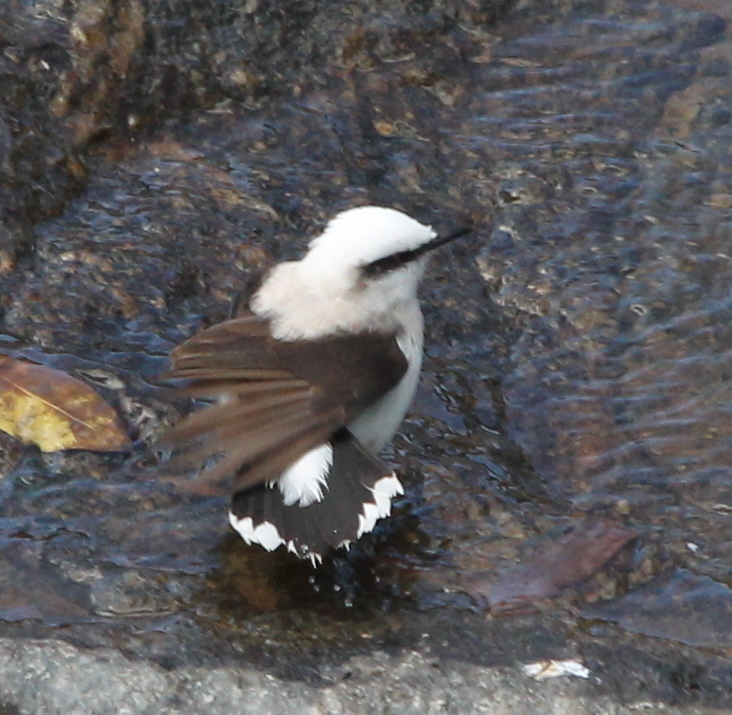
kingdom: Animalia
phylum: Chordata
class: Aves
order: Passeriformes
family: Tyrannidae
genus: Fluvicola
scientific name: Fluvicola nengeta
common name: Masked water tyrant
